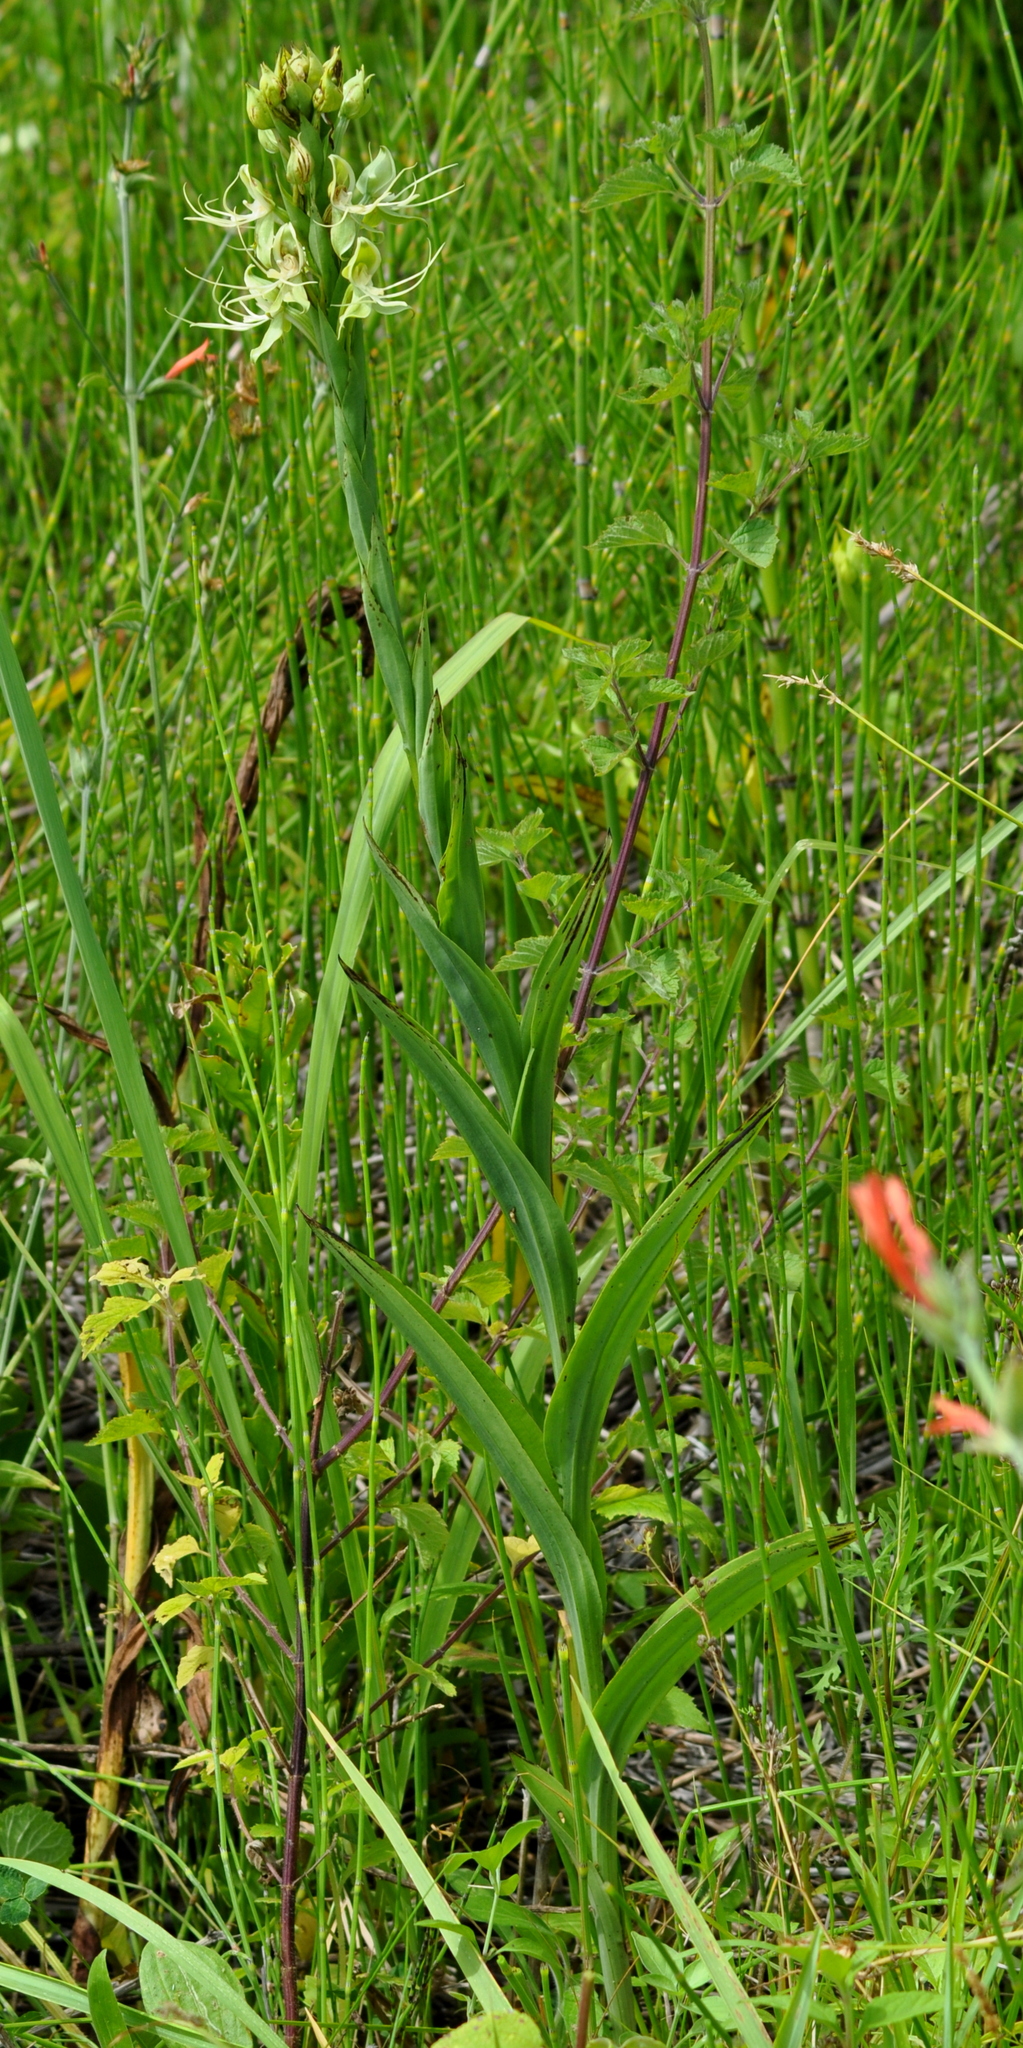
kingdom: Plantae
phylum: Tracheophyta
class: Liliopsida
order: Asparagales
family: Orchidaceae
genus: Habenaria
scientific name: Habenaria gourlieana
